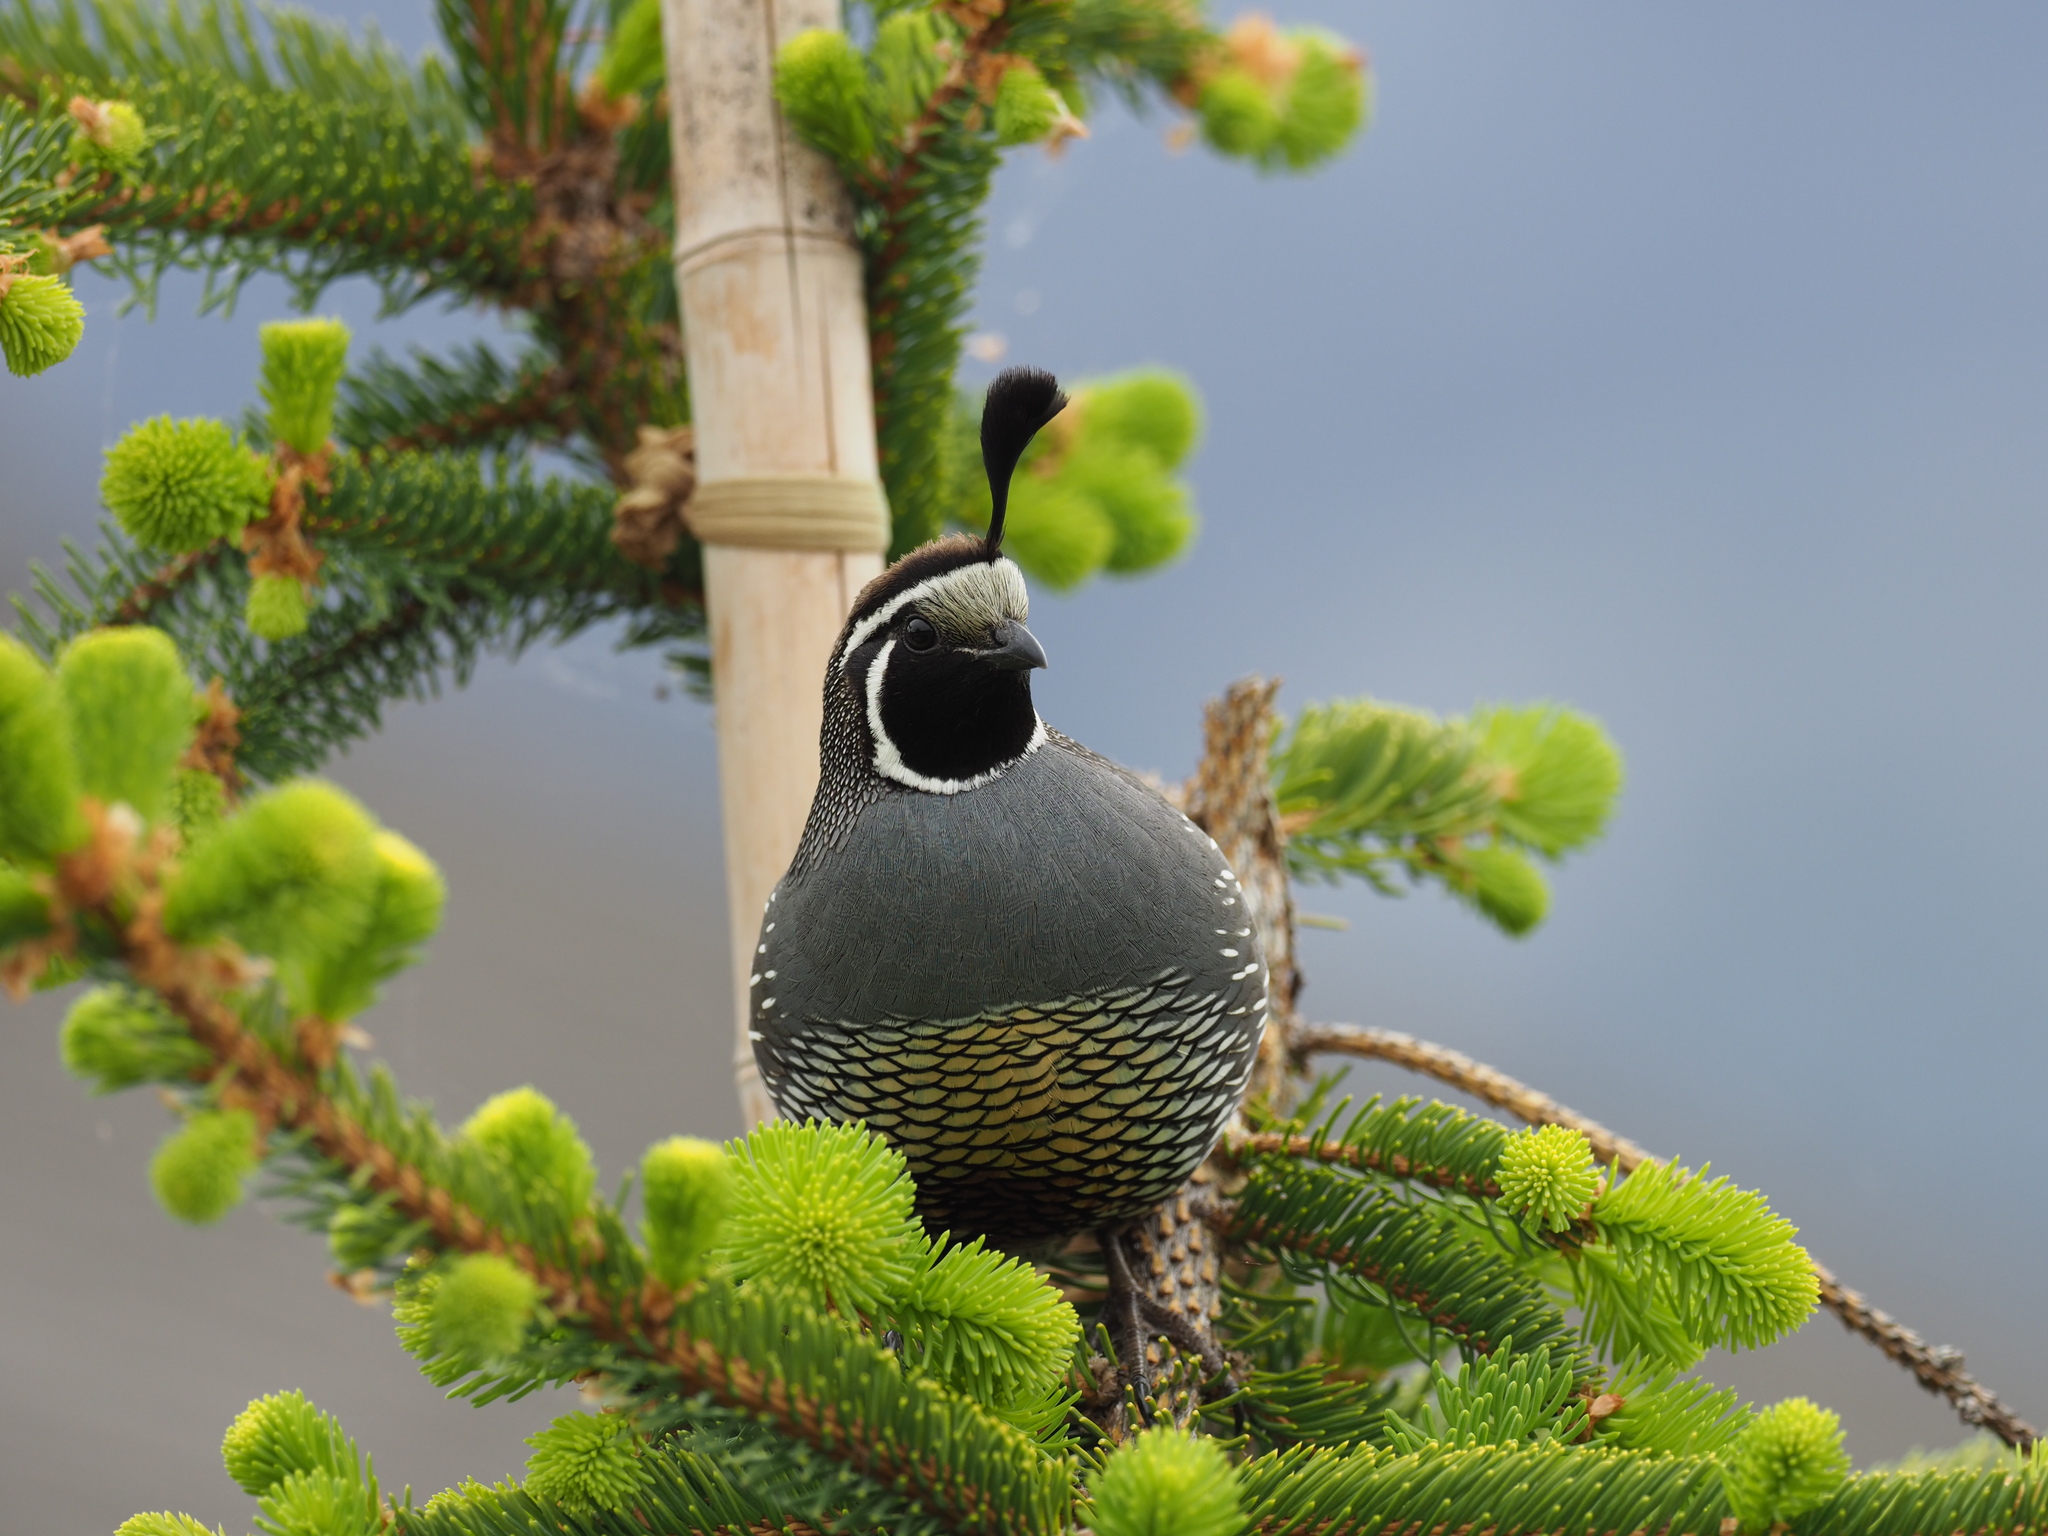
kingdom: Animalia
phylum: Chordata
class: Aves
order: Galliformes
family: Odontophoridae
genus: Callipepla
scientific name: Callipepla californica
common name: California quail
